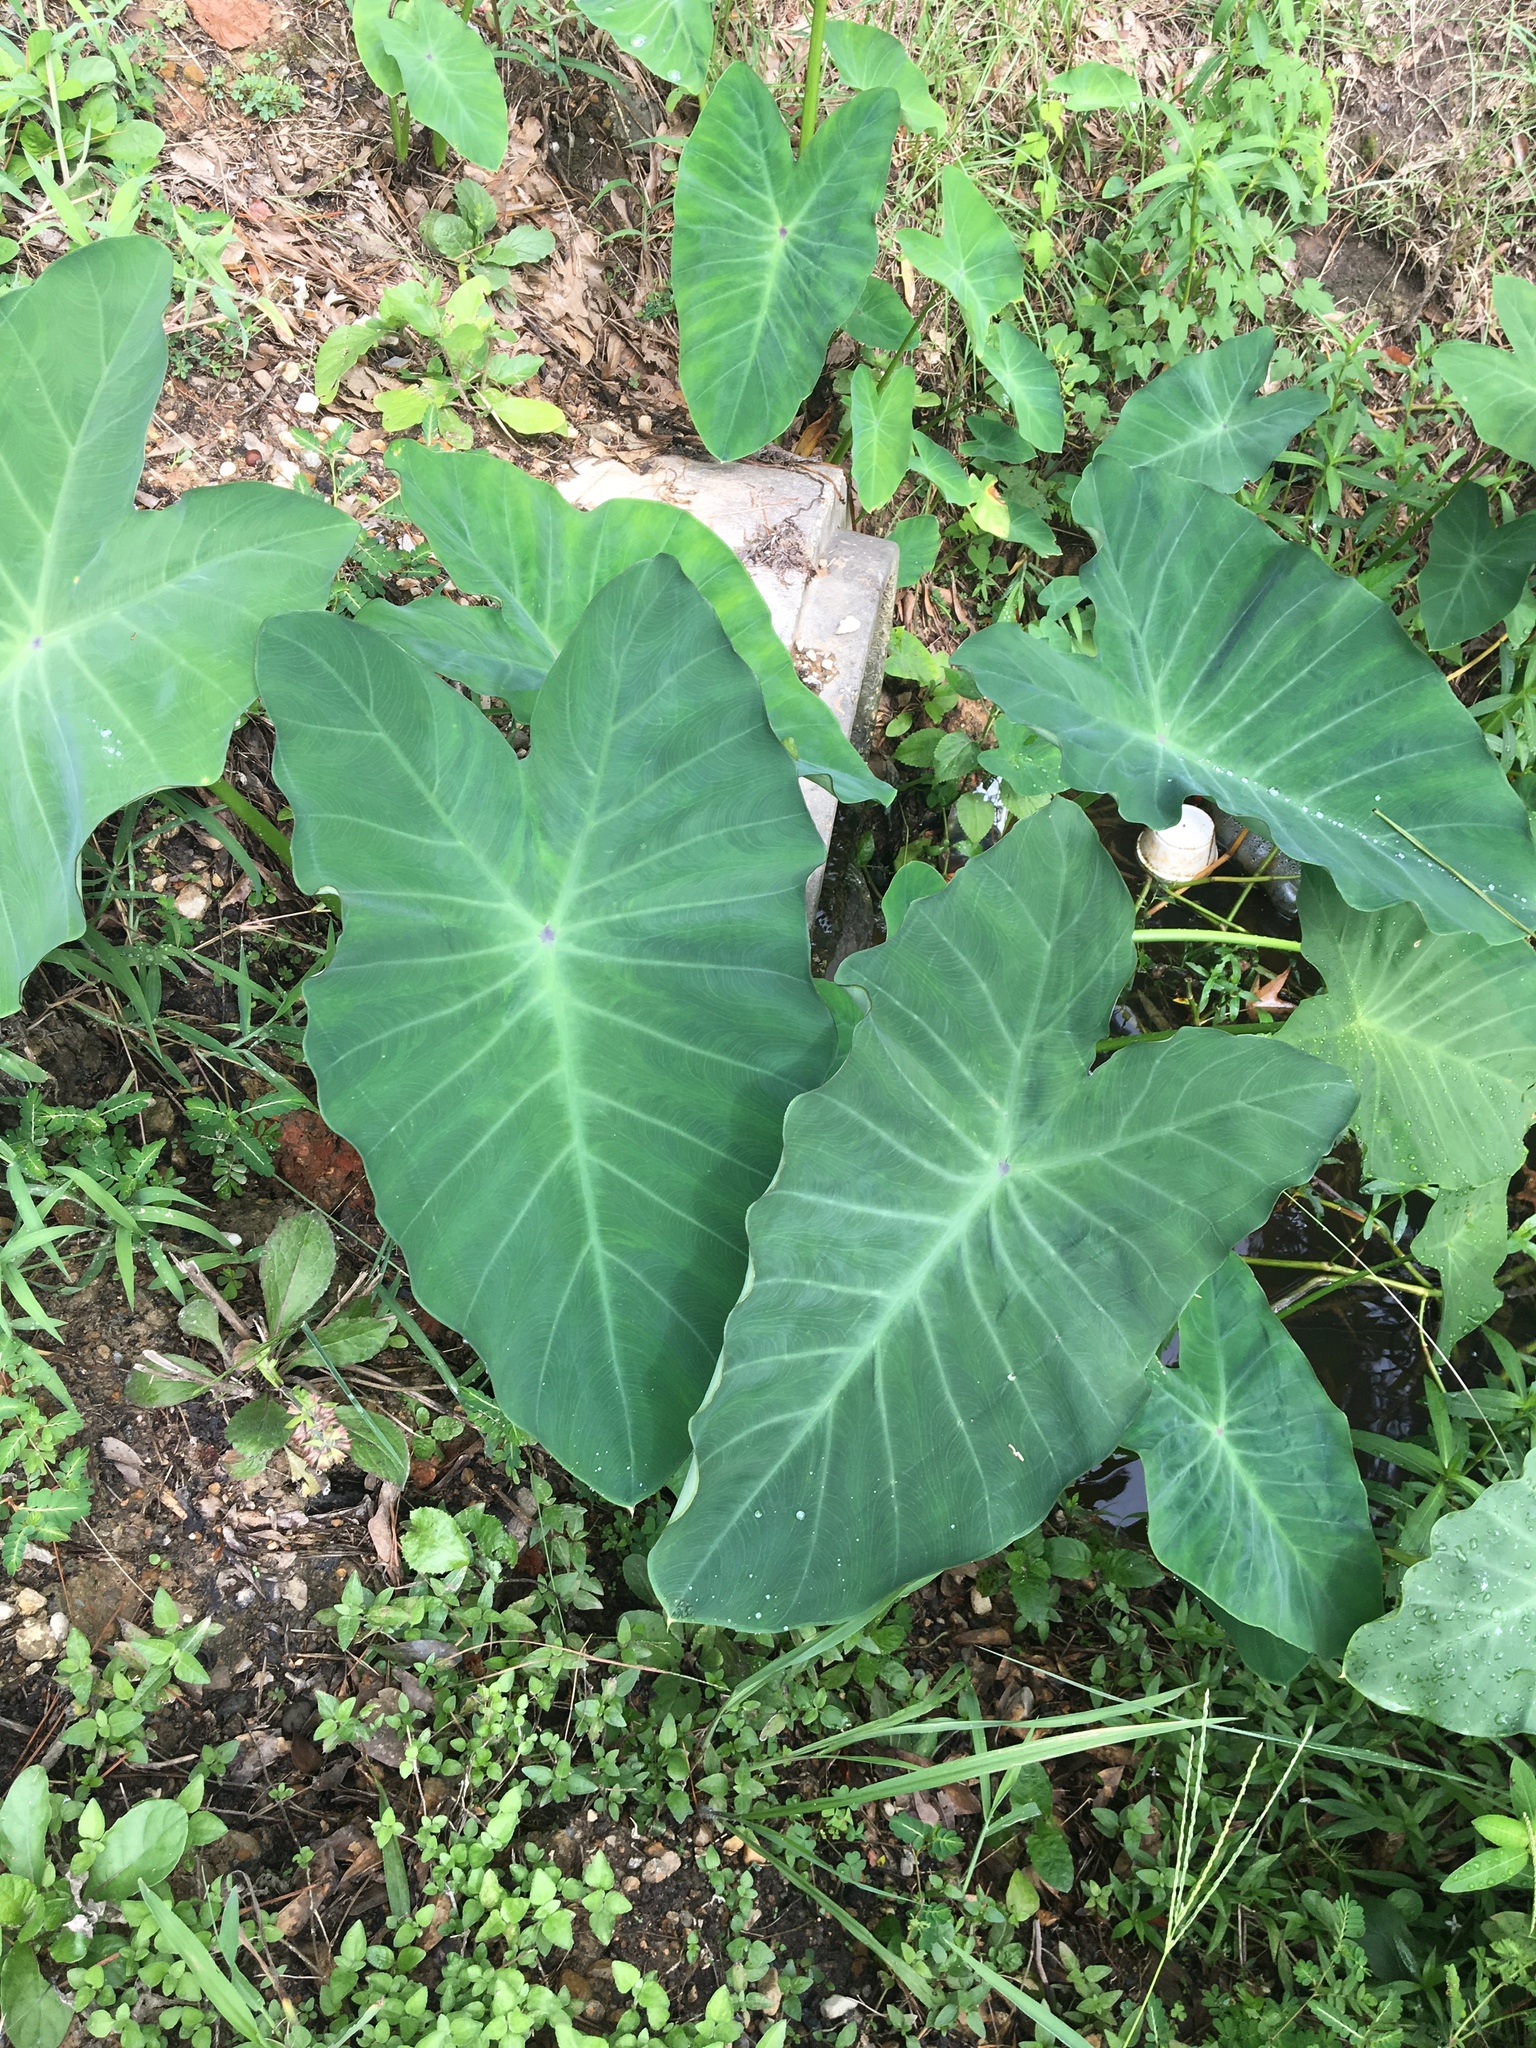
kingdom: Plantae
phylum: Tracheophyta
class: Liliopsida
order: Alismatales
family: Araceae
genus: Colocasia
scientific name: Colocasia esculenta
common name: Taro
